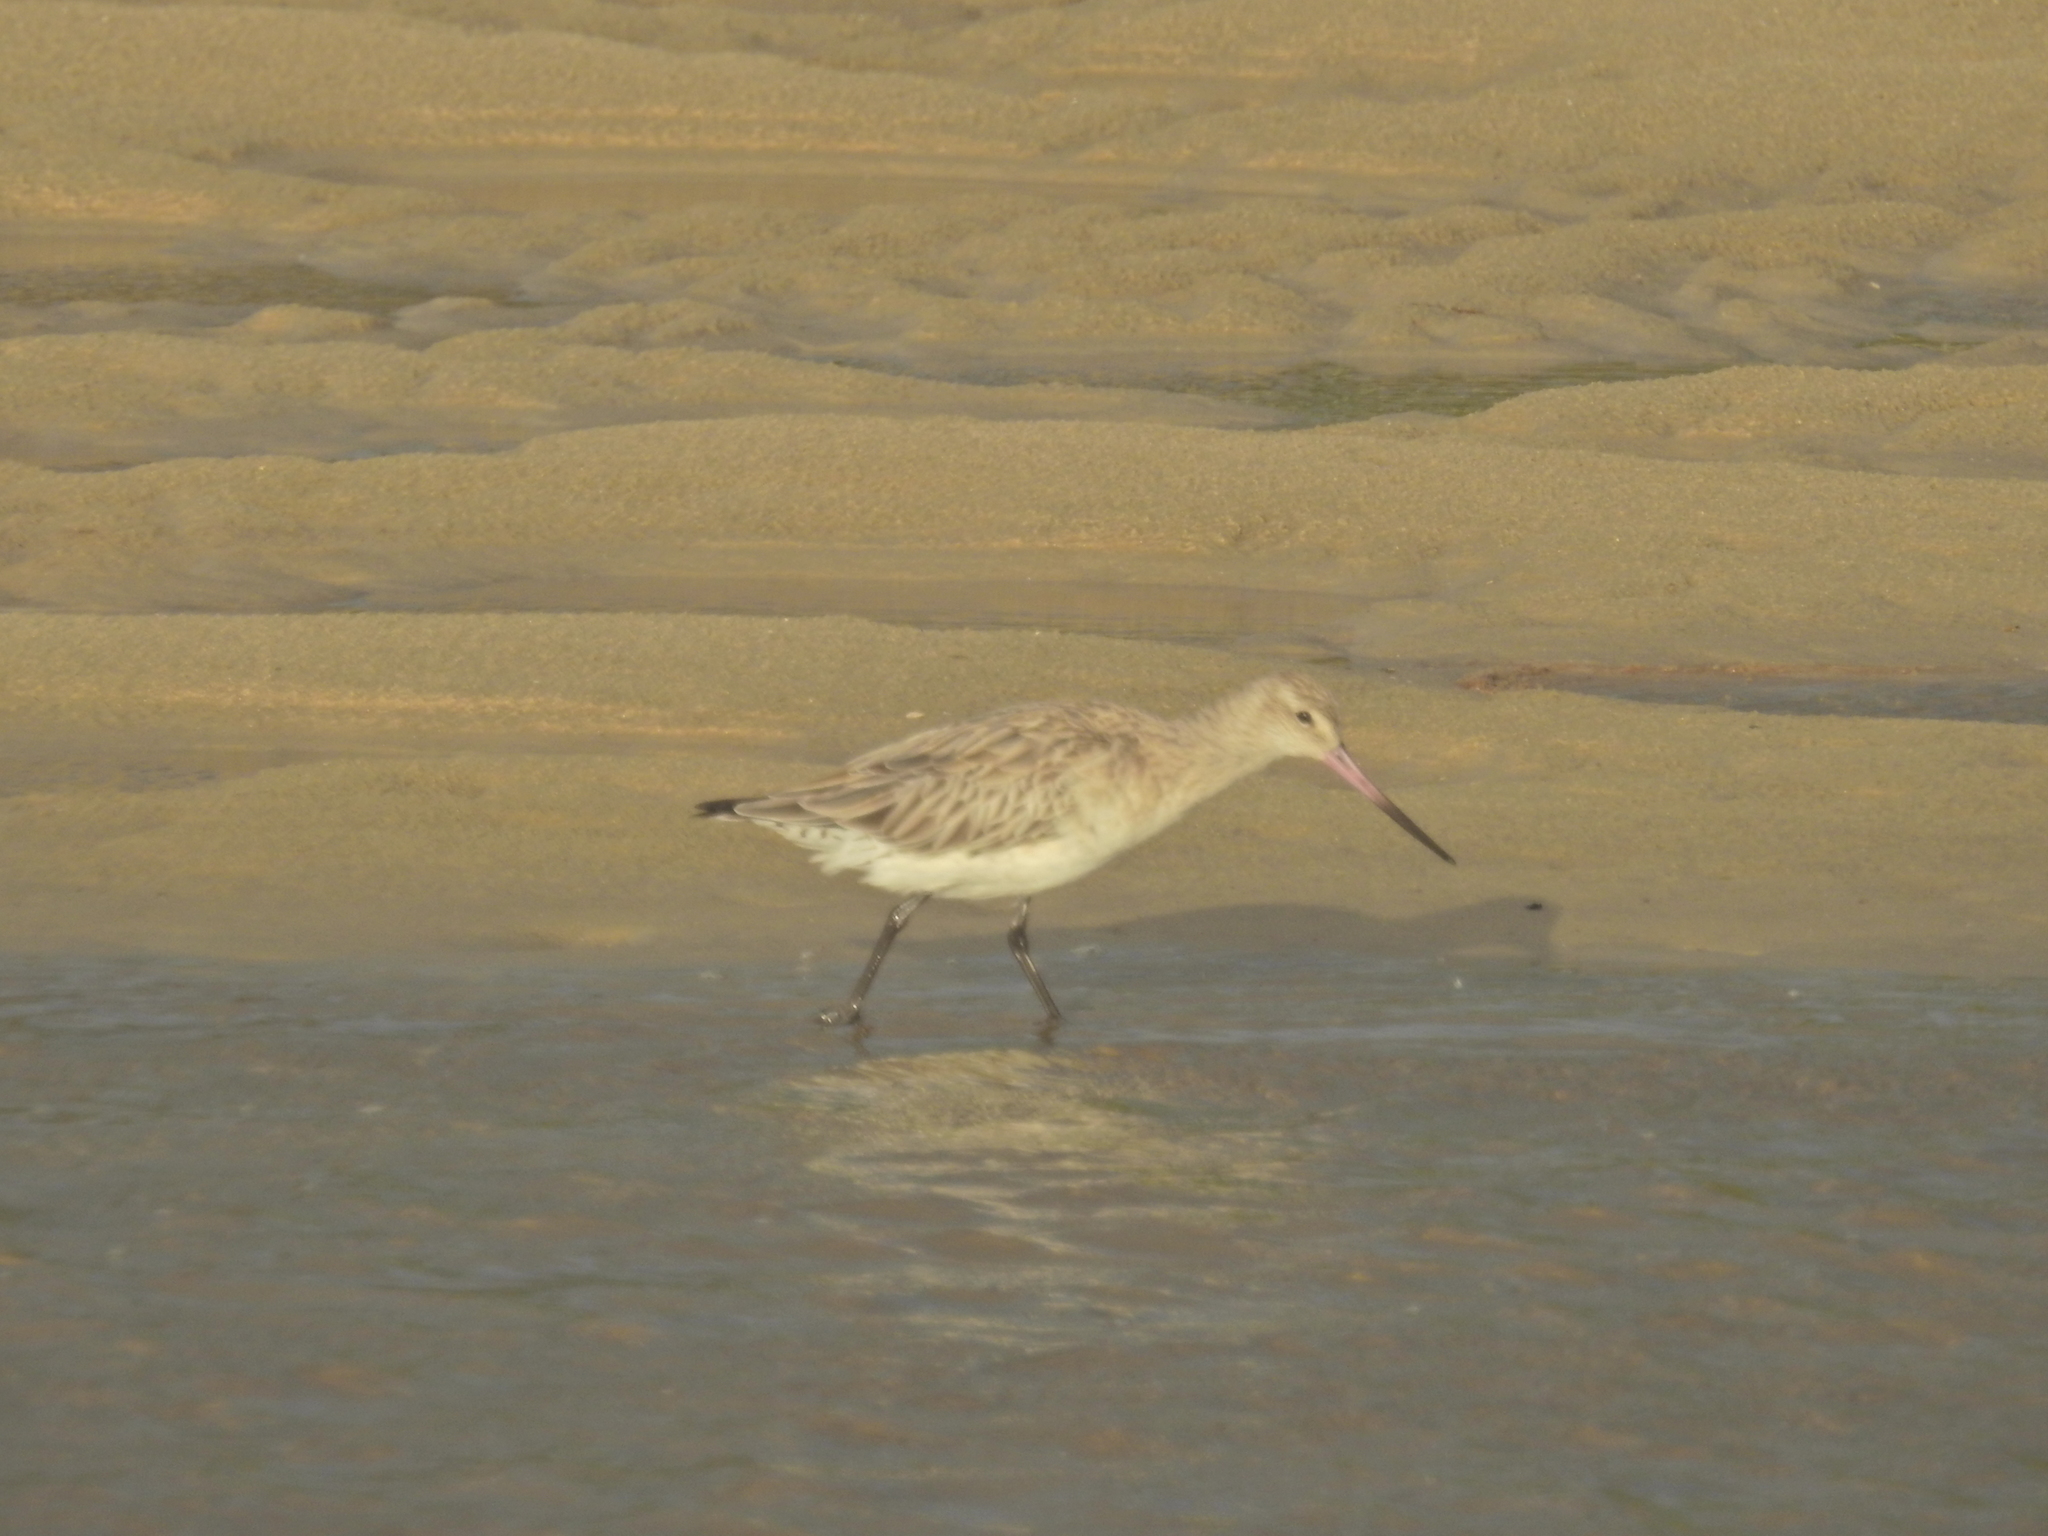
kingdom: Animalia
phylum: Chordata
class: Aves
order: Charadriiformes
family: Scolopacidae
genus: Limosa
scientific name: Limosa lapponica
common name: Bar-tailed godwit
